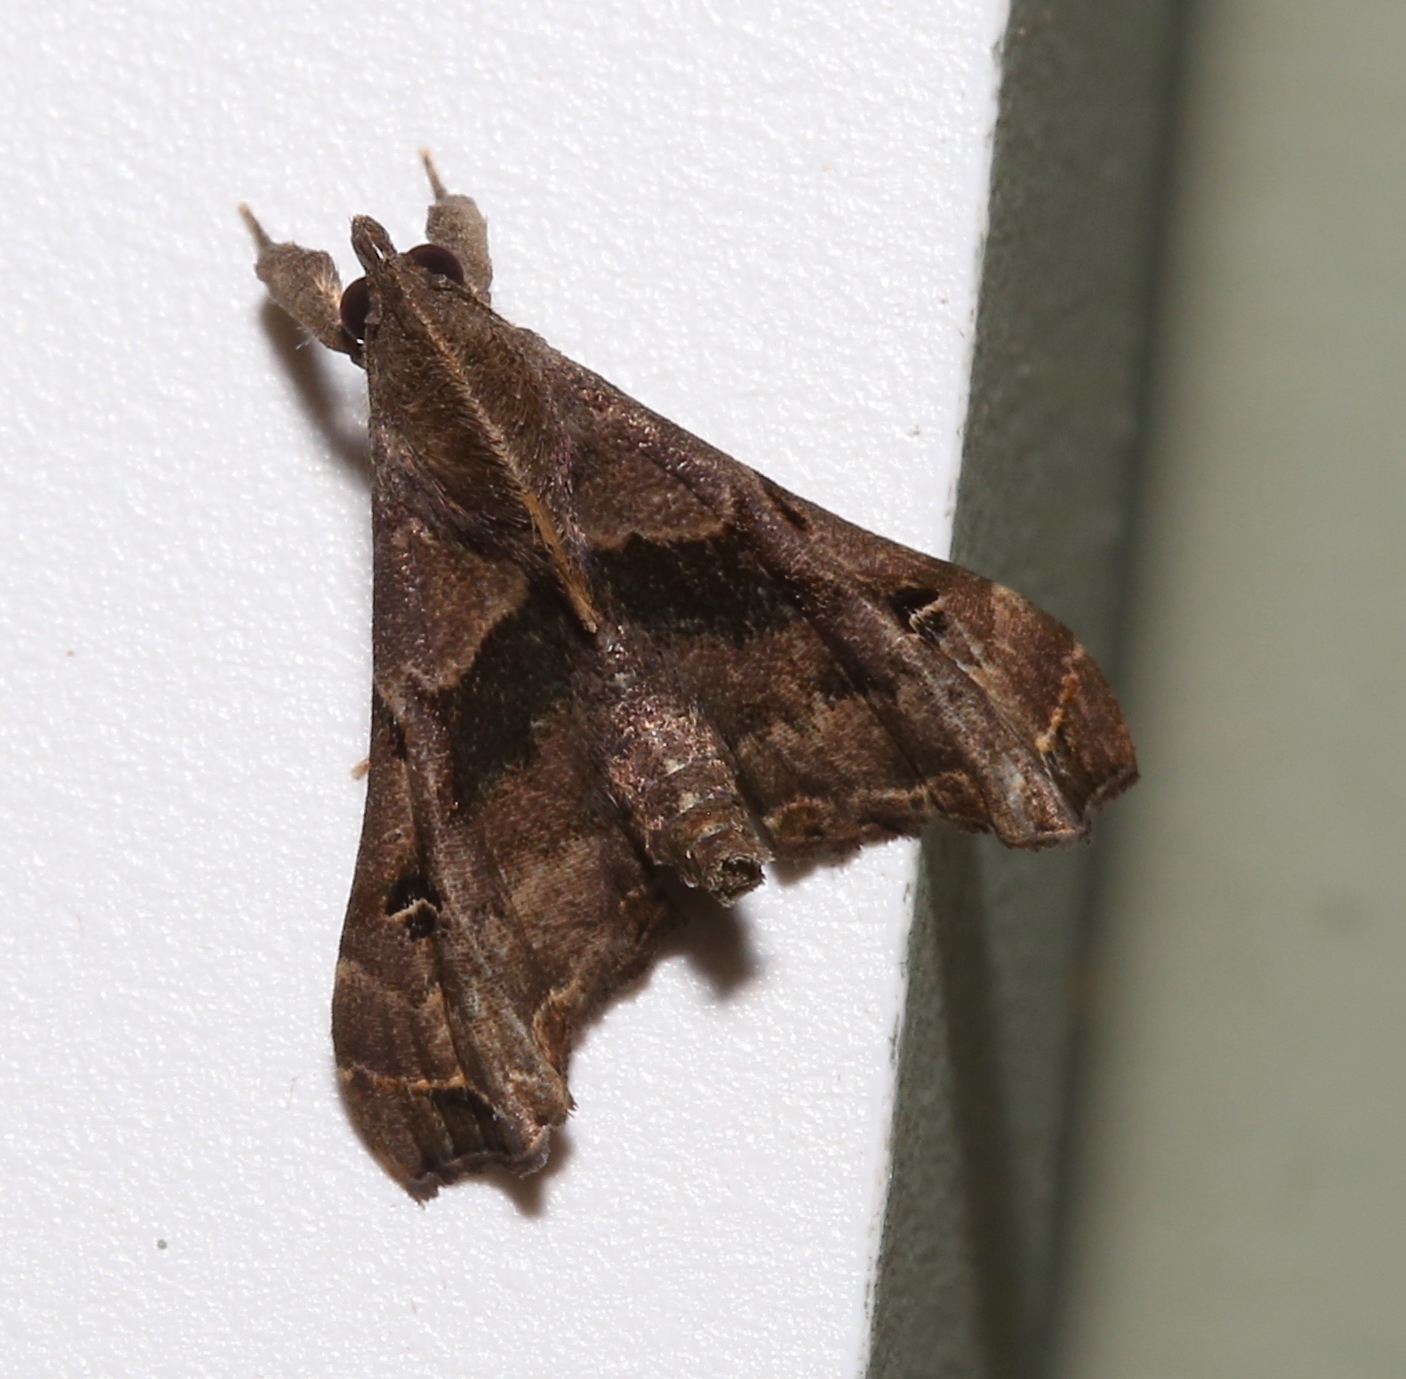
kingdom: Animalia
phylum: Arthropoda
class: Insecta
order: Lepidoptera
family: Erebidae
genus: Palthis
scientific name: Palthis asopialis
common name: Faint-spotted palthis moth
